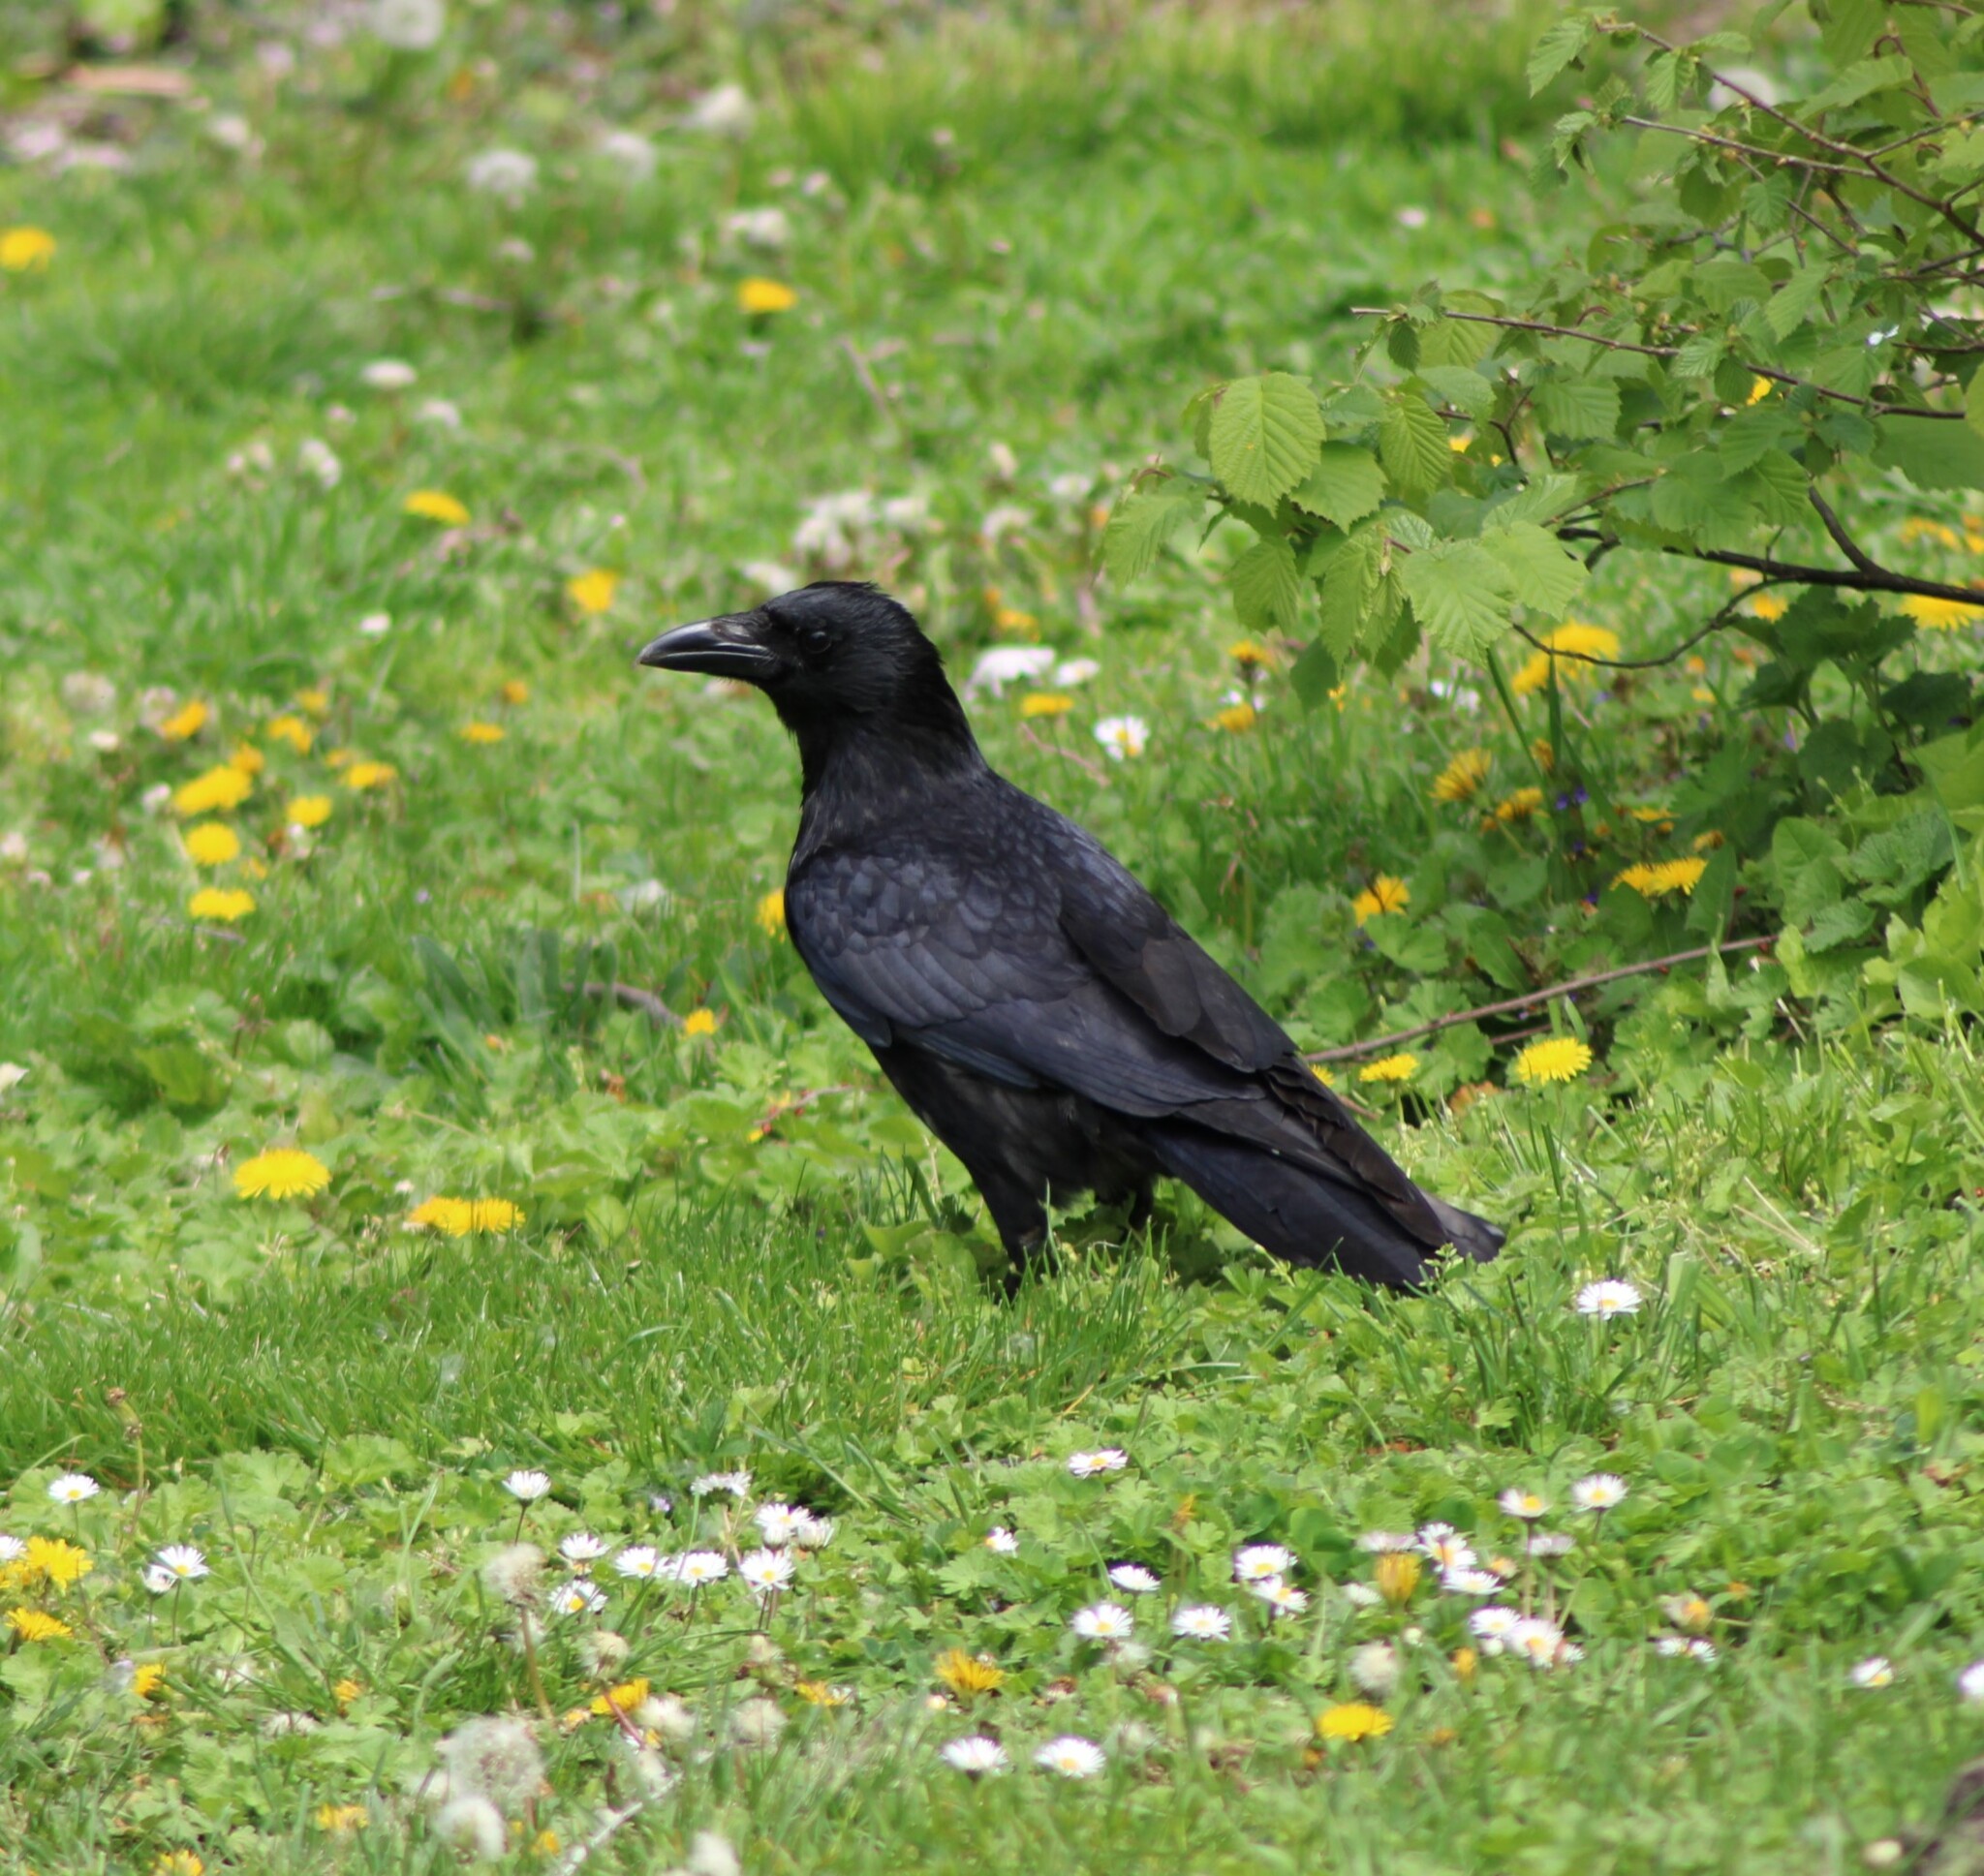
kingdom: Animalia
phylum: Chordata
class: Aves
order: Passeriformes
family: Corvidae
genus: Corvus
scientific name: Corvus corone
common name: Carrion crow
